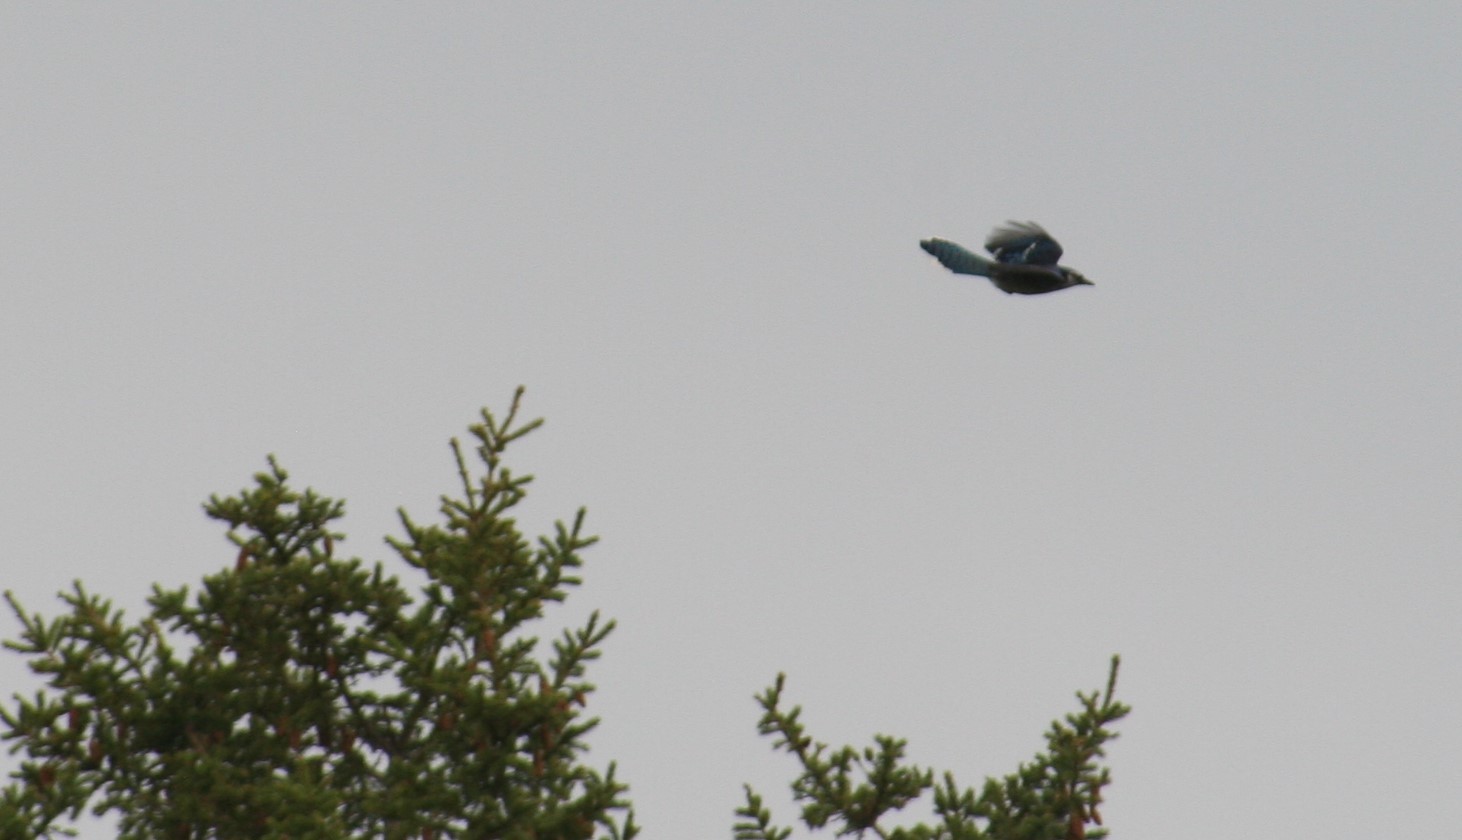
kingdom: Animalia
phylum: Chordata
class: Aves
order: Passeriformes
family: Corvidae
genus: Cyanocitta
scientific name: Cyanocitta cristata
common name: Blue jay
